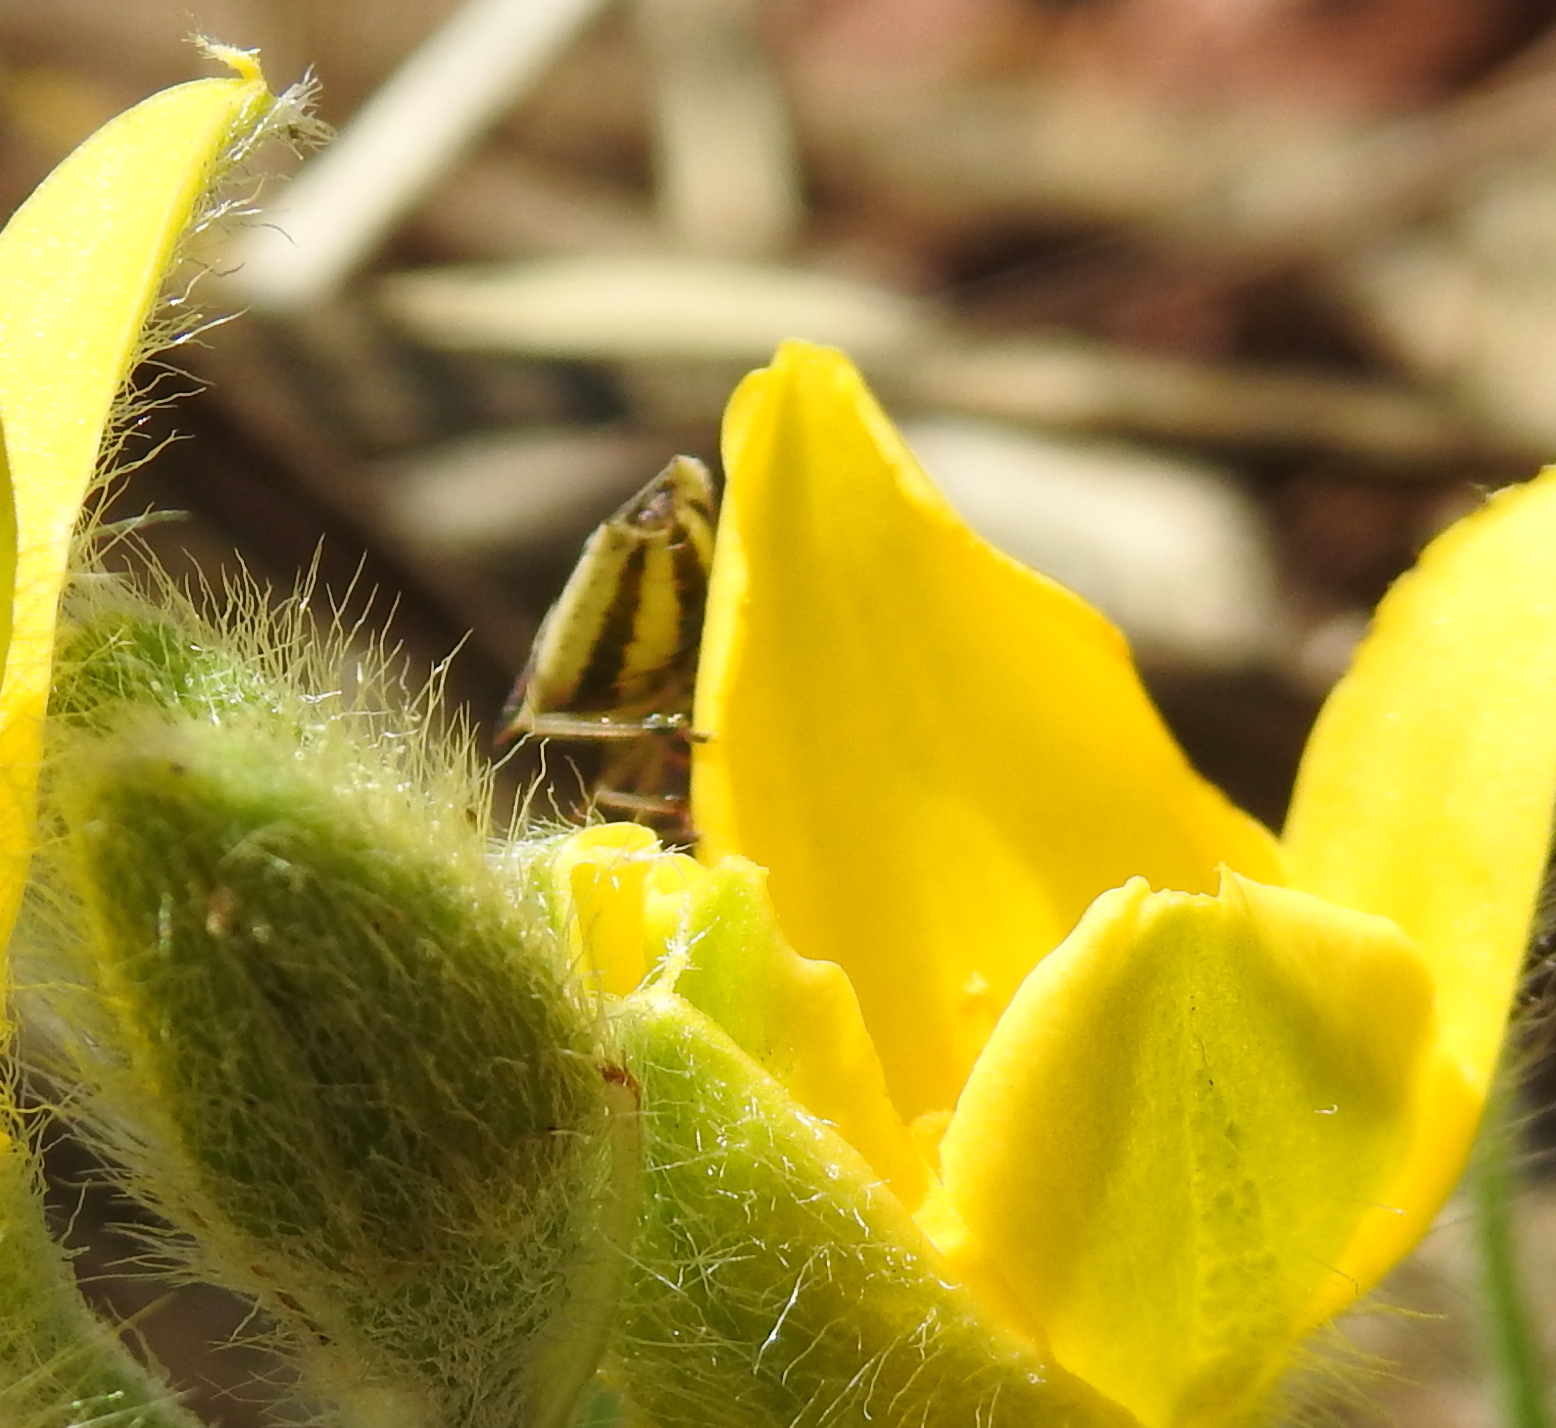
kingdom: Animalia
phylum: Arthropoda
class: Insecta
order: Hemiptera
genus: Durmia
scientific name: Durmia
